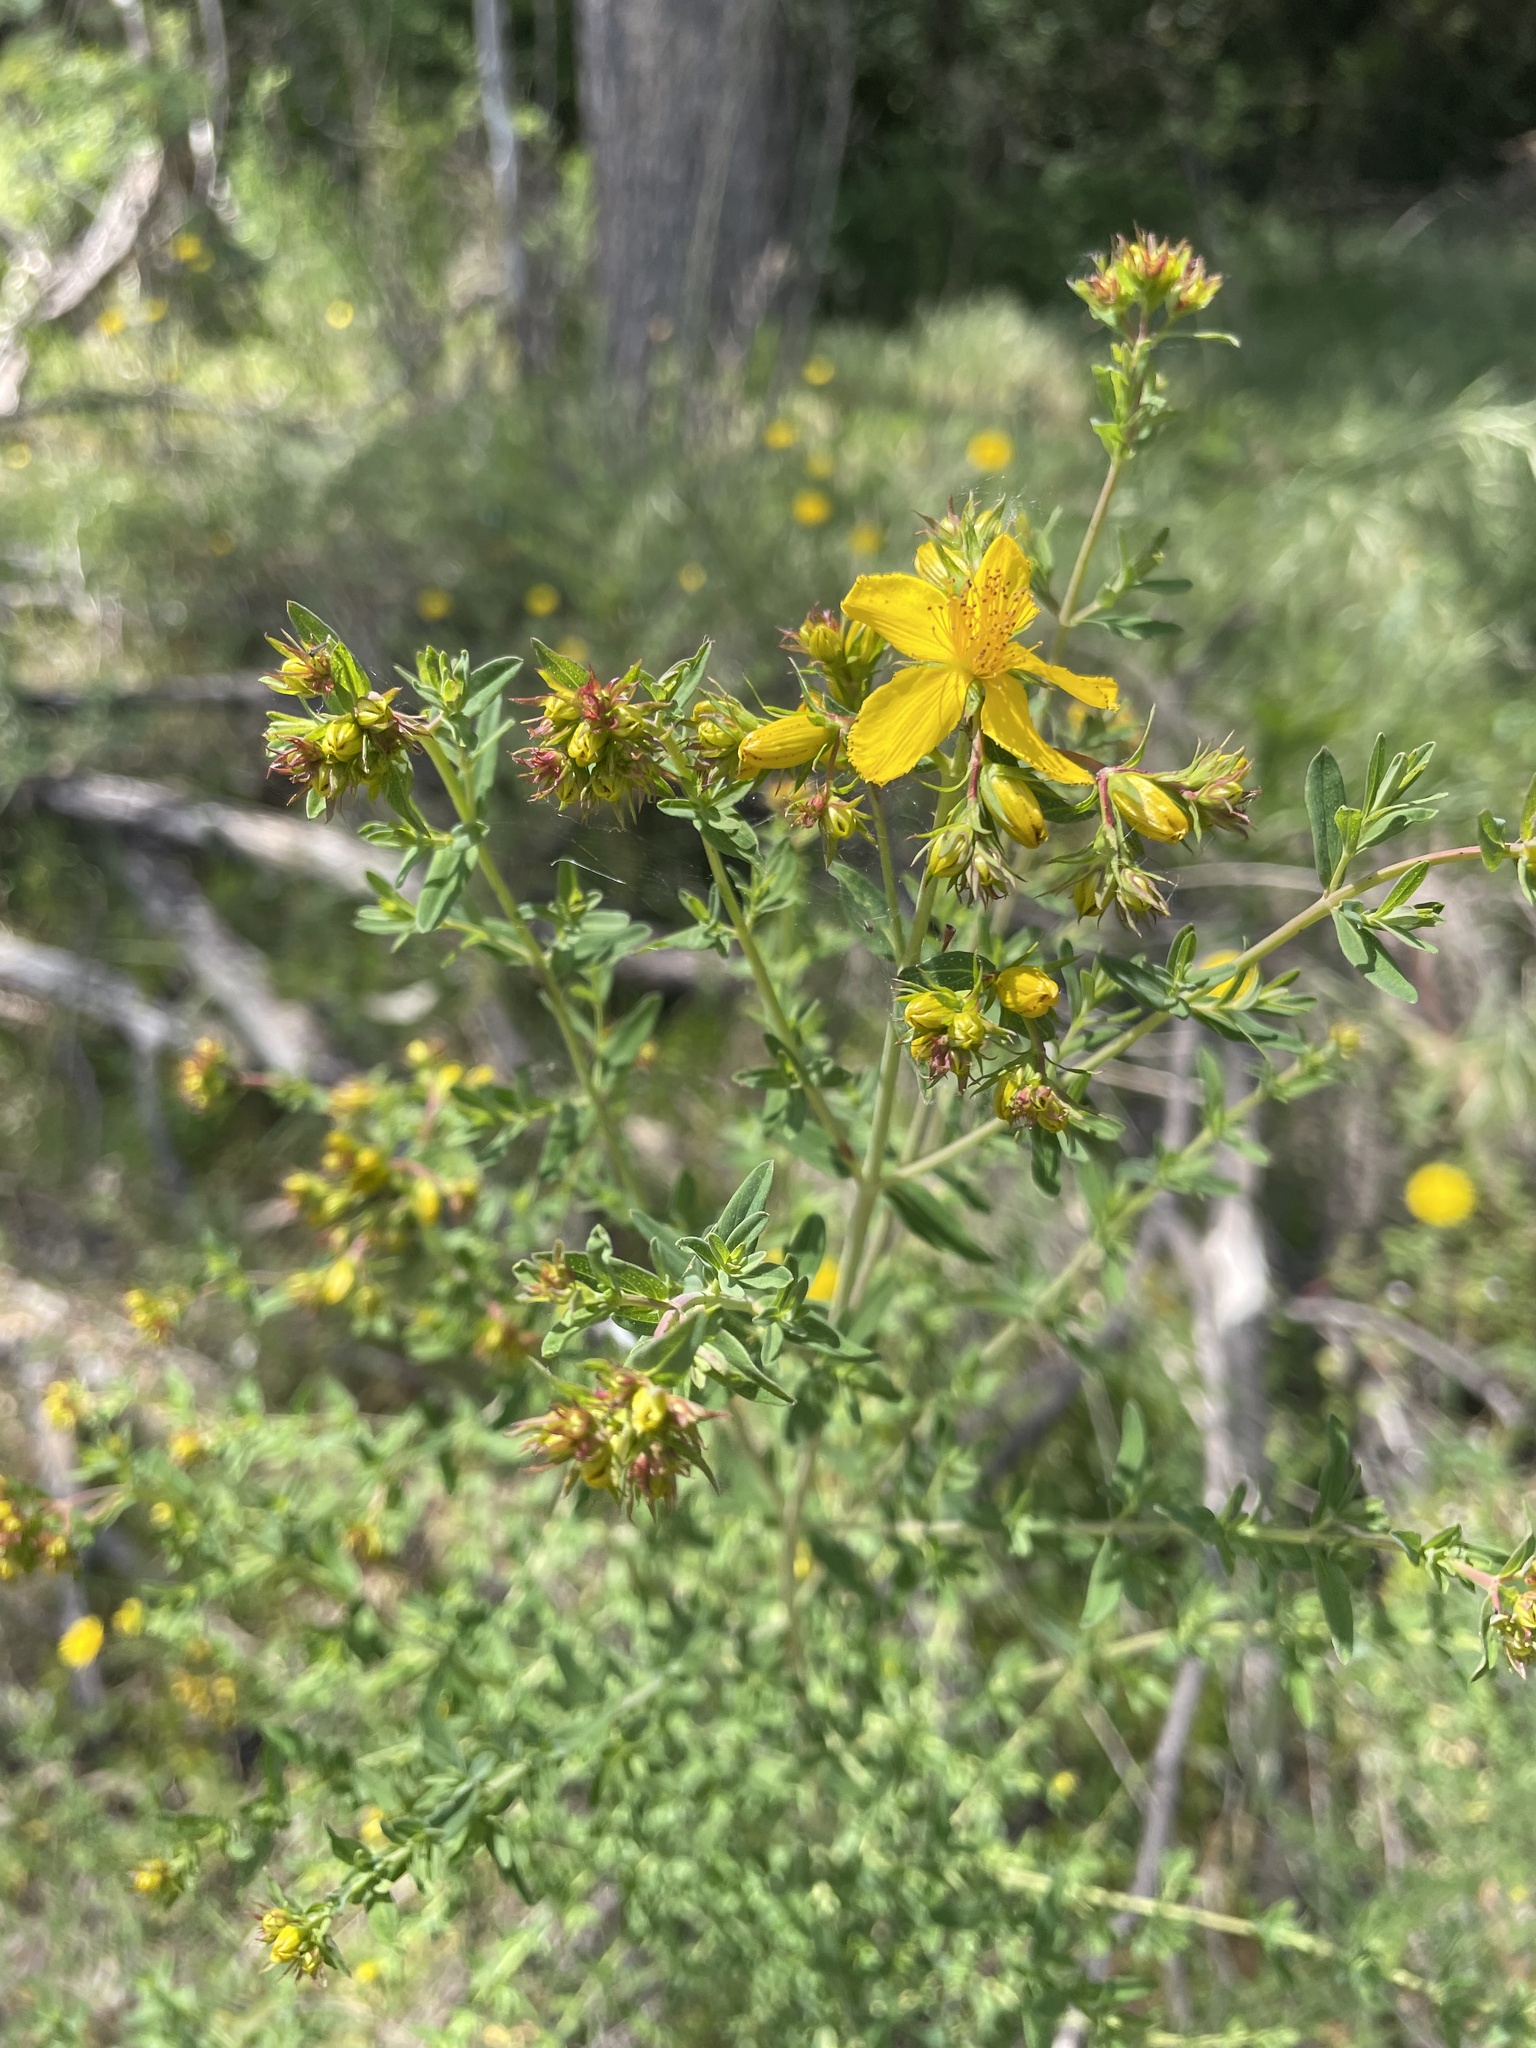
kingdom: Plantae
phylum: Tracheophyta
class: Magnoliopsida
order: Malpighiales
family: Hypericaceae
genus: Hypericum
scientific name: Hypericum perforatum
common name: Common st. johnswort
